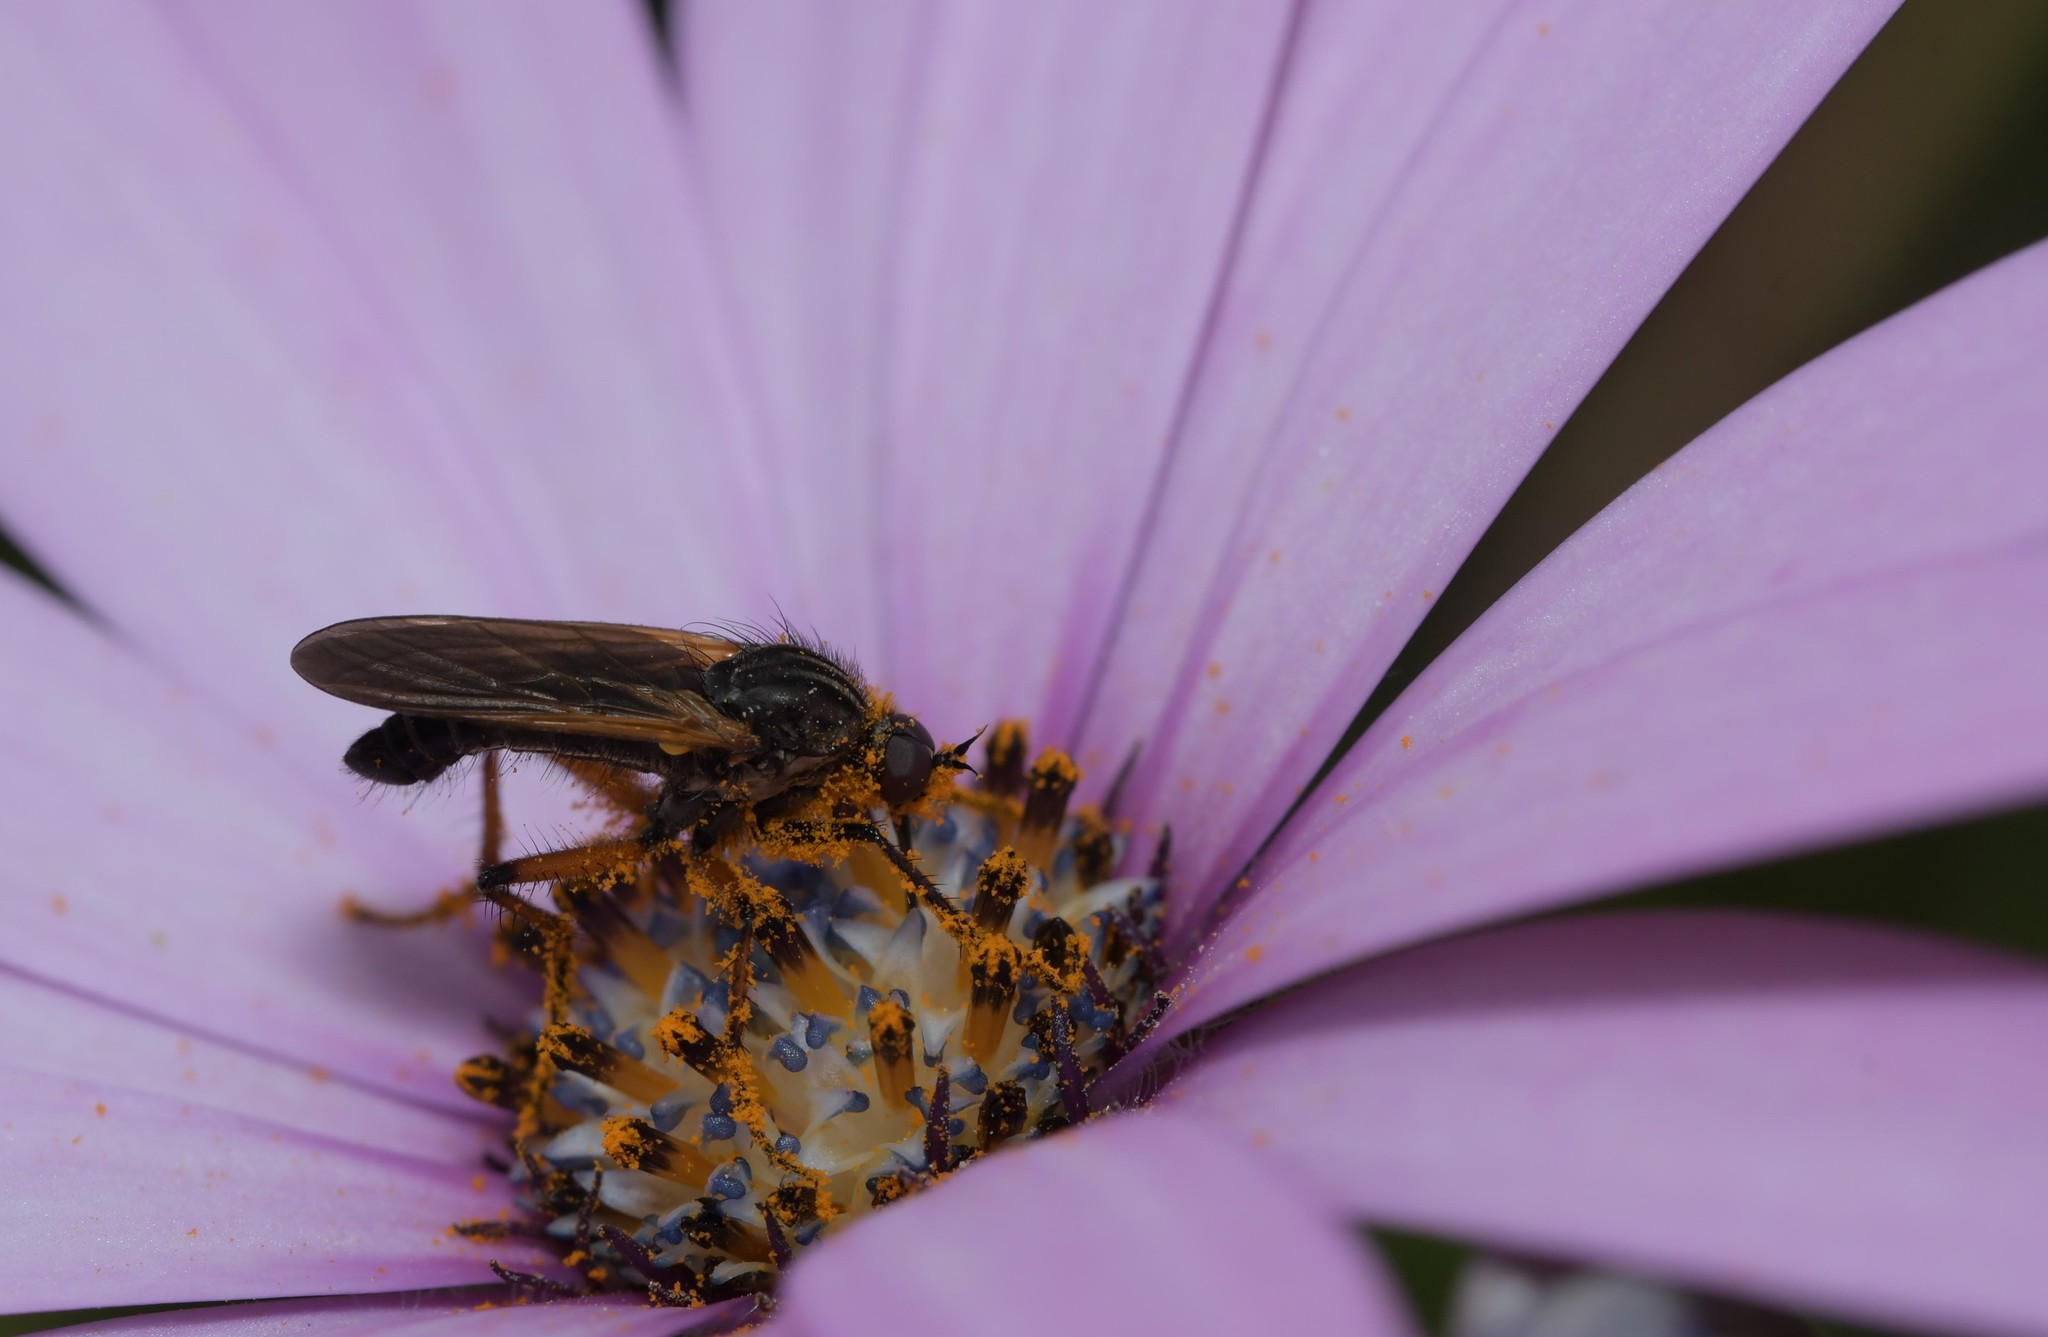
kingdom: Animalia
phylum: Arthropoda
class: Insecta
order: Diptera
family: Empididae
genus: Empis
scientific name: Empis tessellata
